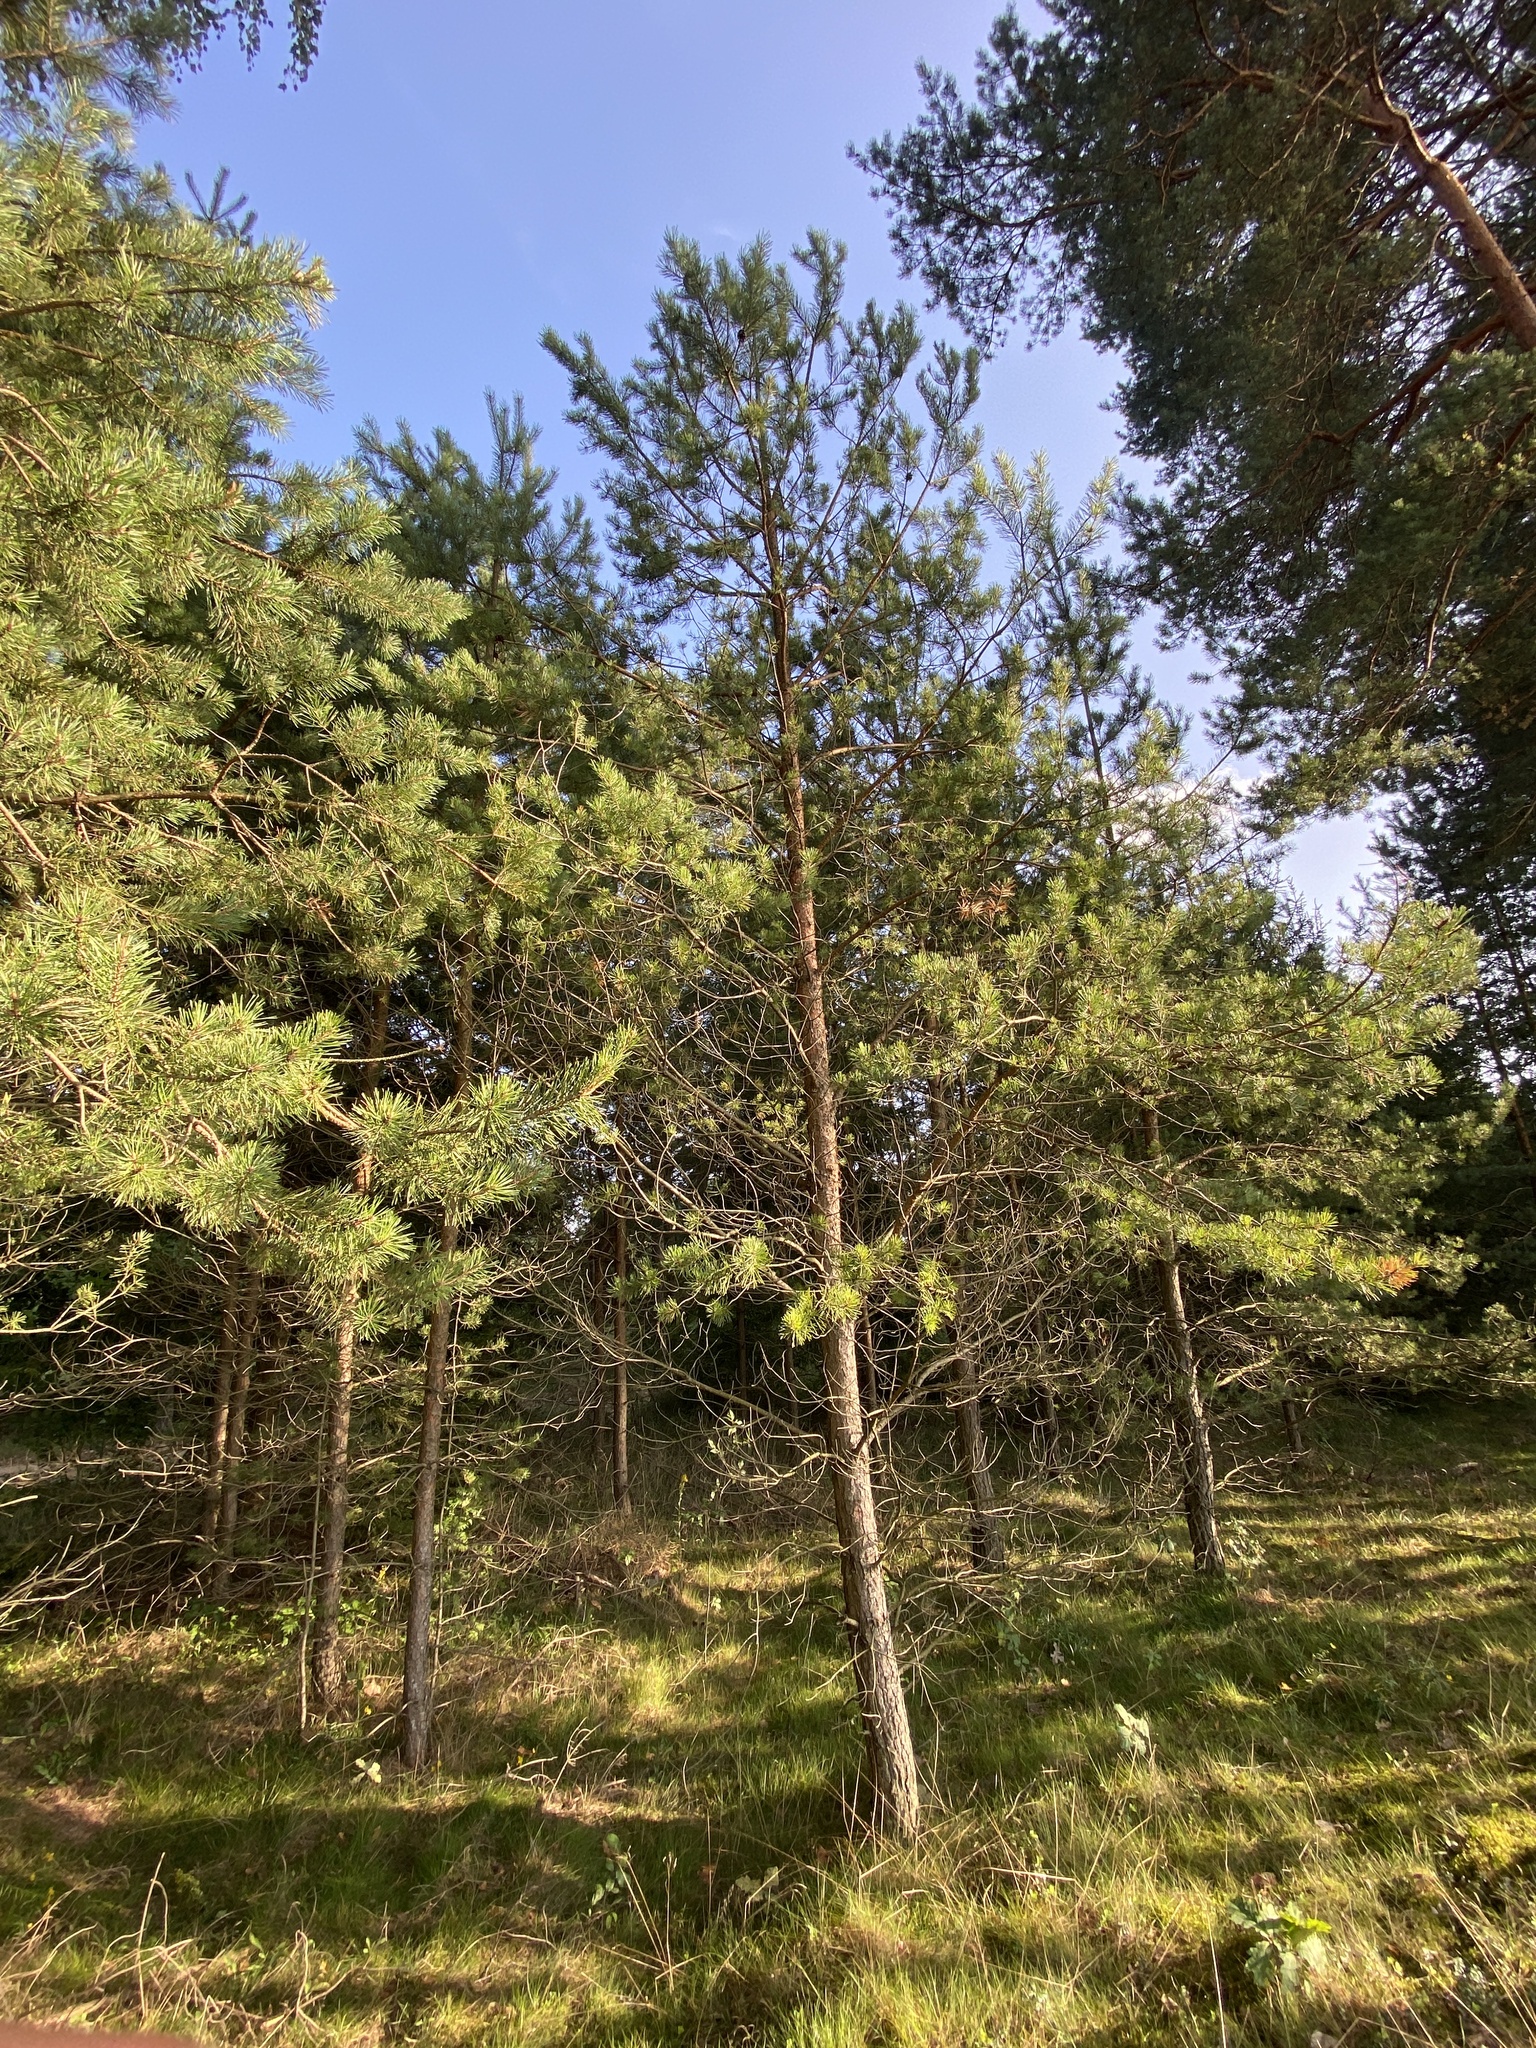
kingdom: Plantae
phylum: Tracheophyta
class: Pinopsida
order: Pinales
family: Pinaceae
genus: Pinus
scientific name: Pinus sylvestris
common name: Scots pine
